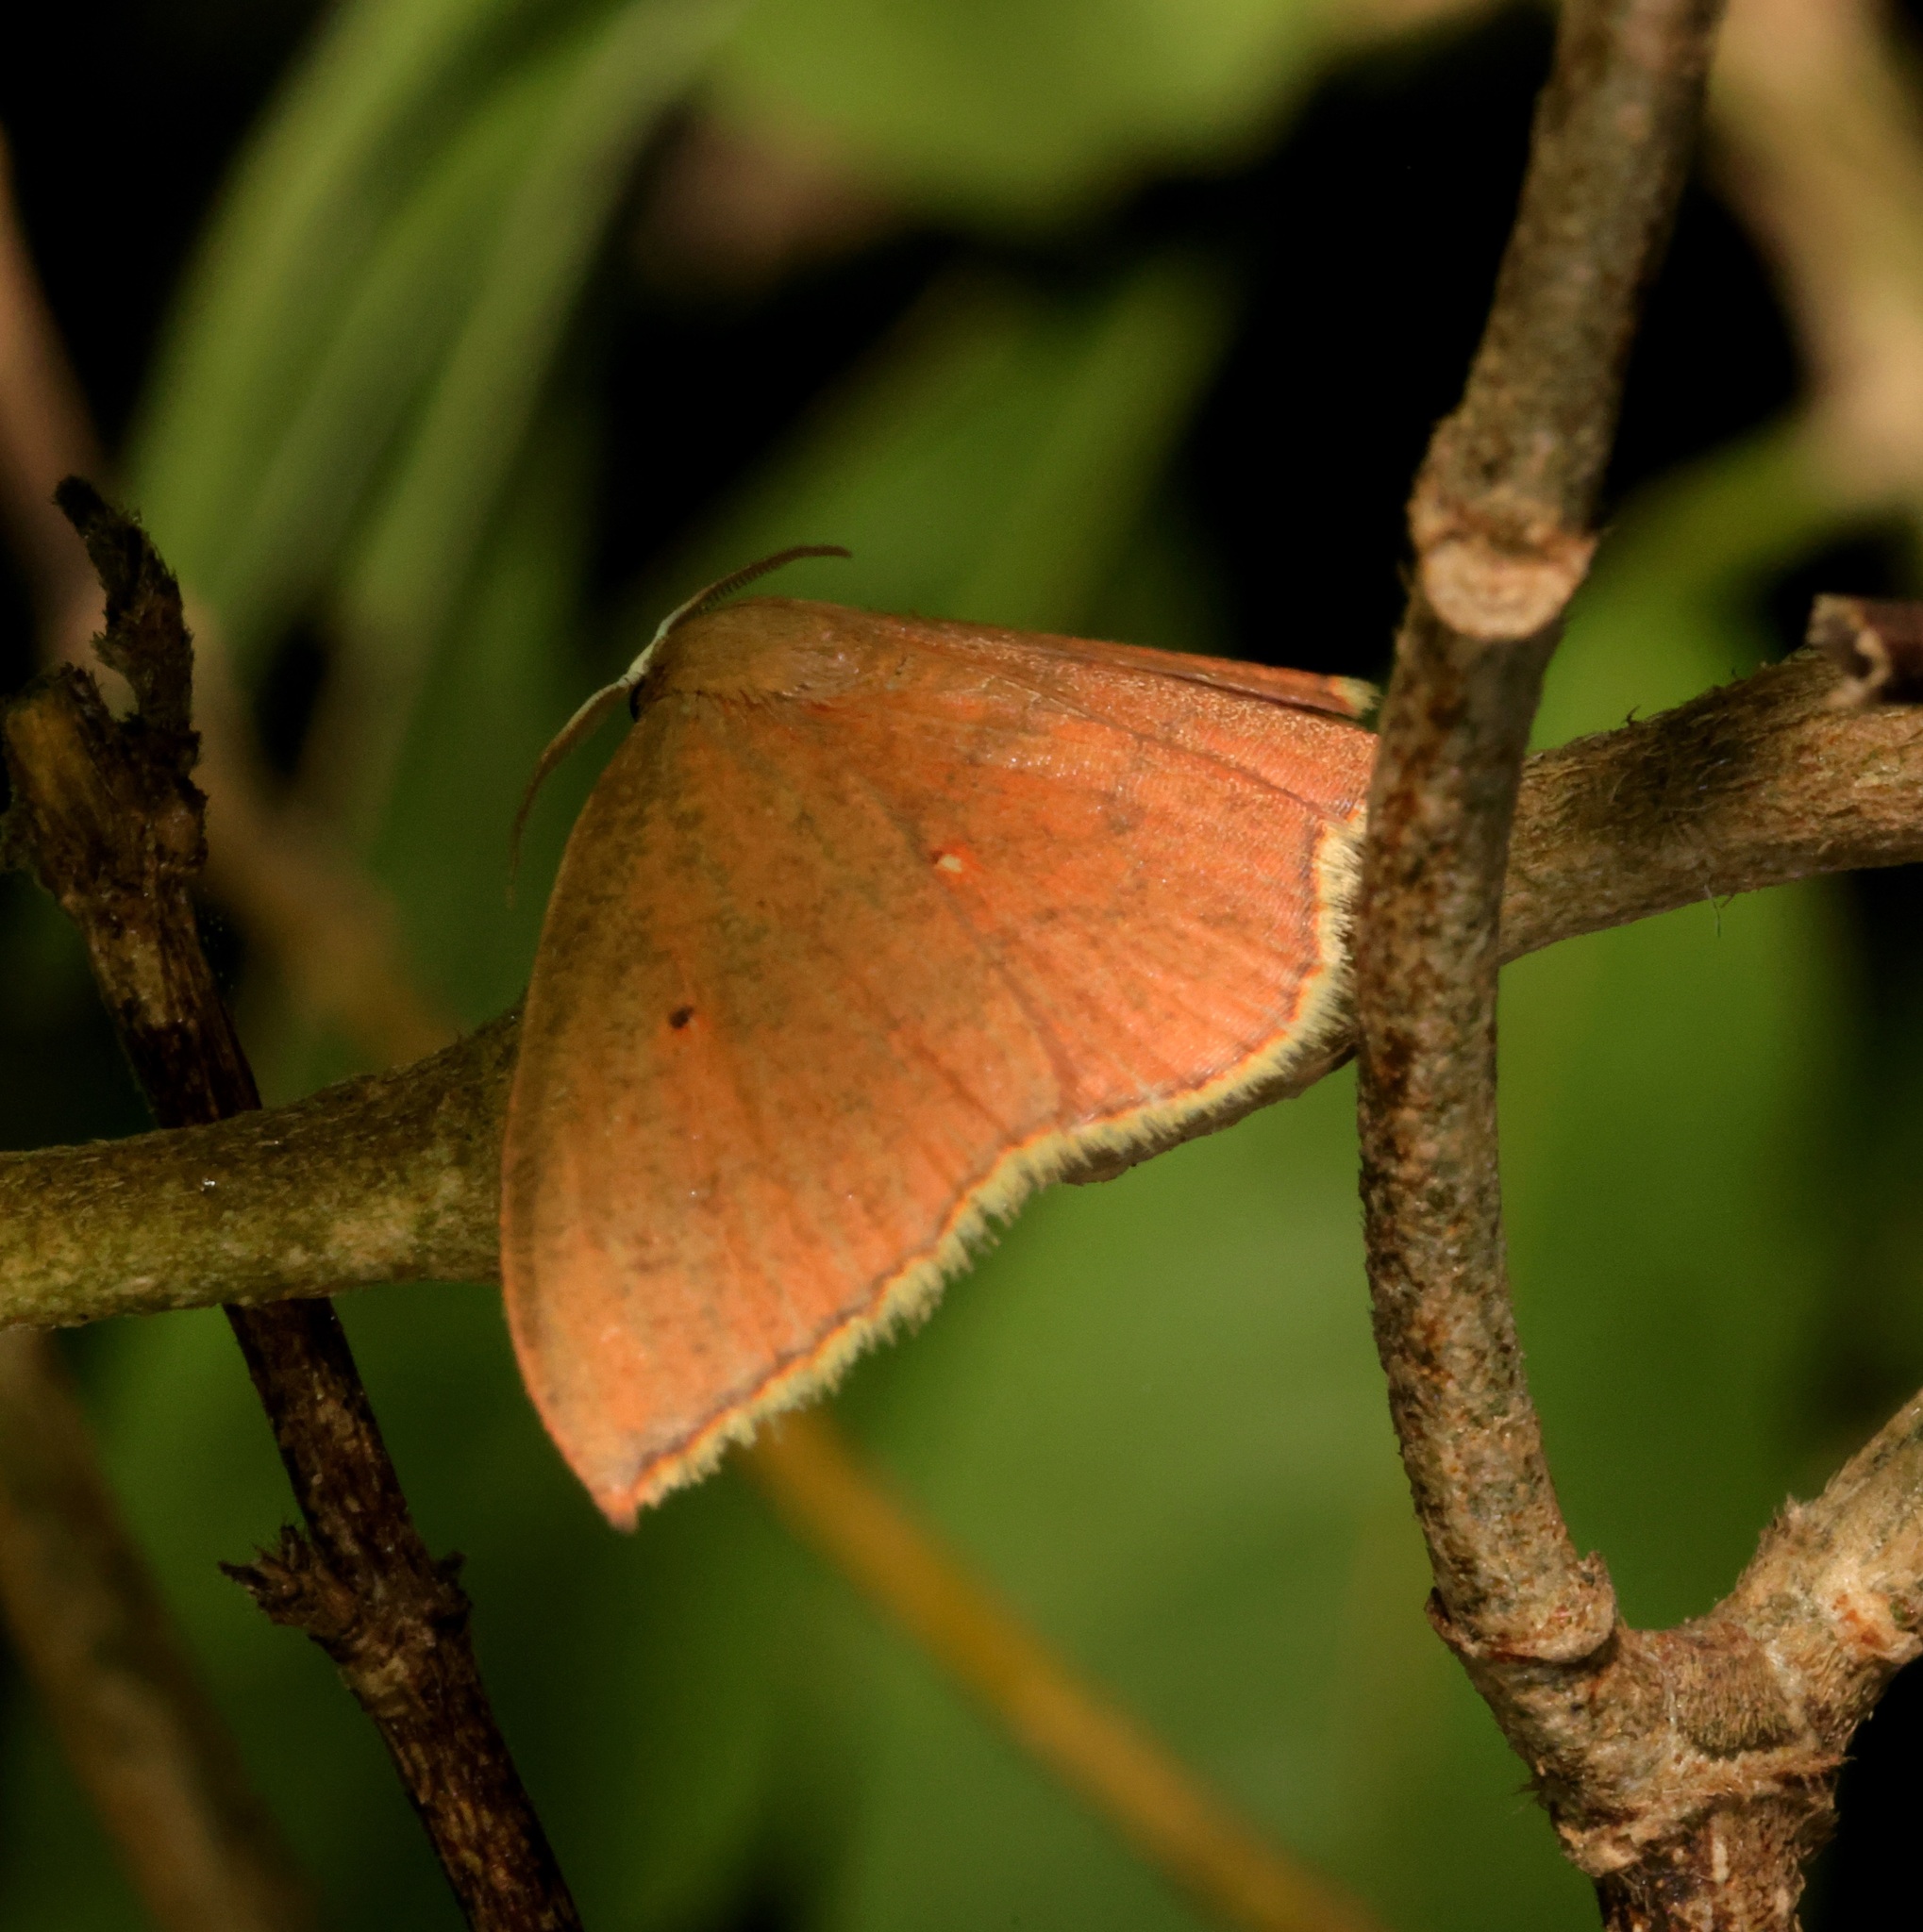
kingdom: Animalia
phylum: Arthropoda
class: Insecta
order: Lepidoptera
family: Uraniidae
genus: Pseudhyria
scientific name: Pseudhyria rubra
